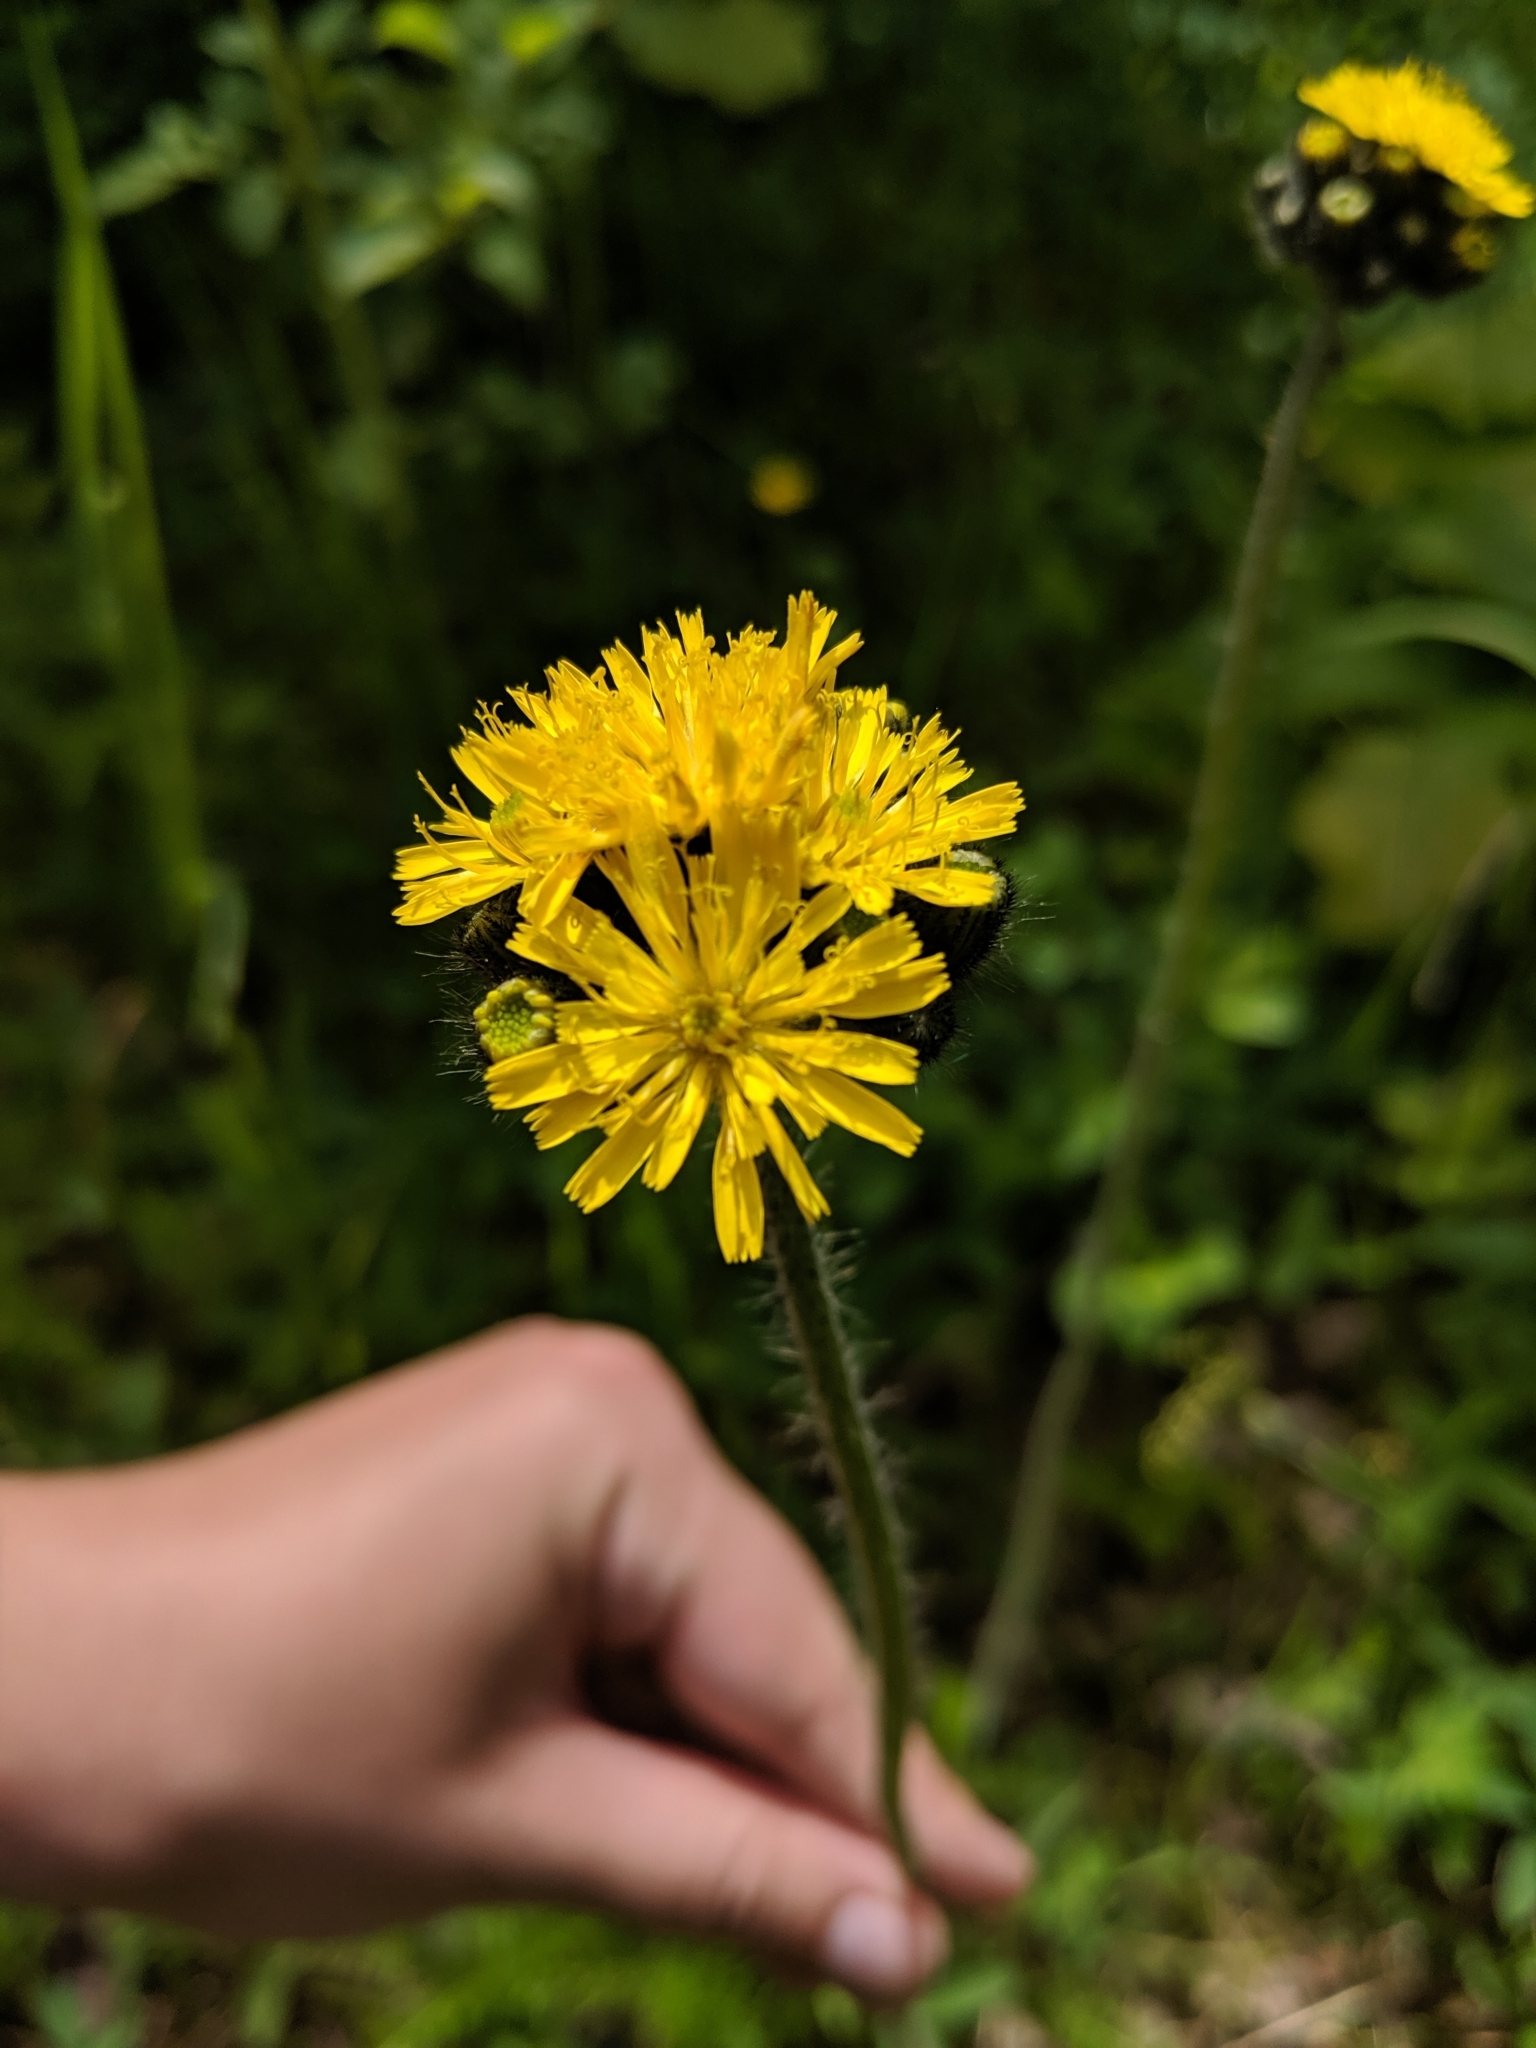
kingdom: Plantae
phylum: Tracheophyta
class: Magnoliopsida
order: Asterales
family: Asteraceae
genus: Pilosella
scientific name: Pilosella caespitosa
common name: Yellow fox-and-cubs
